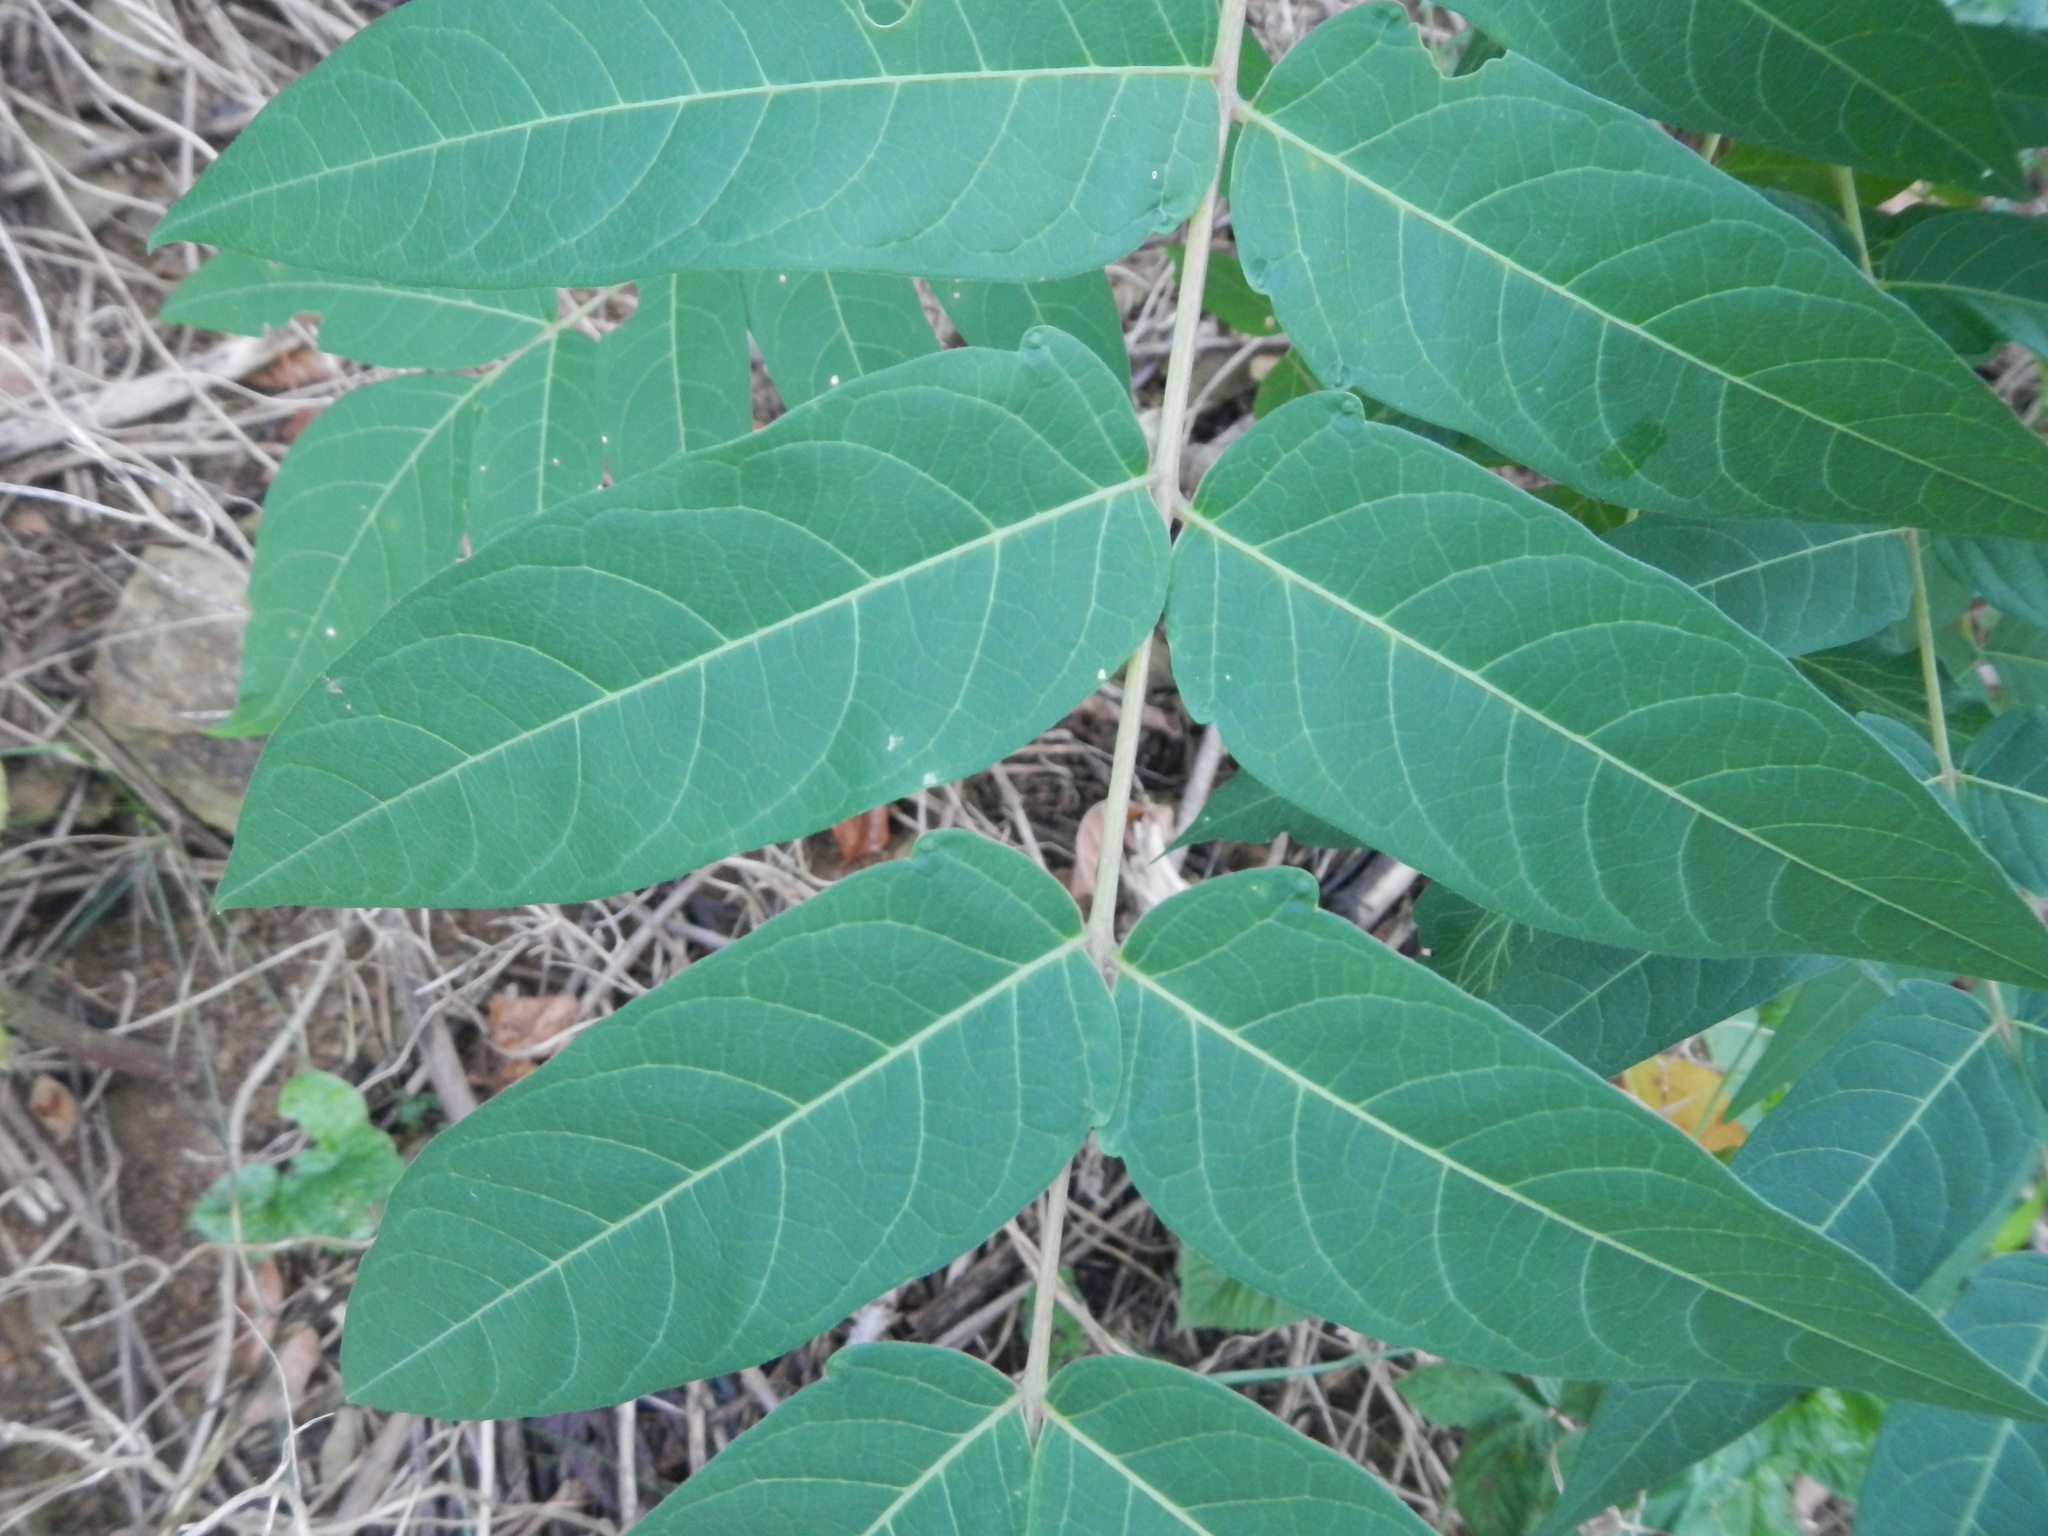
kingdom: Plantae
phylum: Tracheophyta
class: Magnoliopsida
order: Sapindales
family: Simaroubaceae
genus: Ailanthus
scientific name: Ailanthus altissima
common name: Tree-of-heaven
